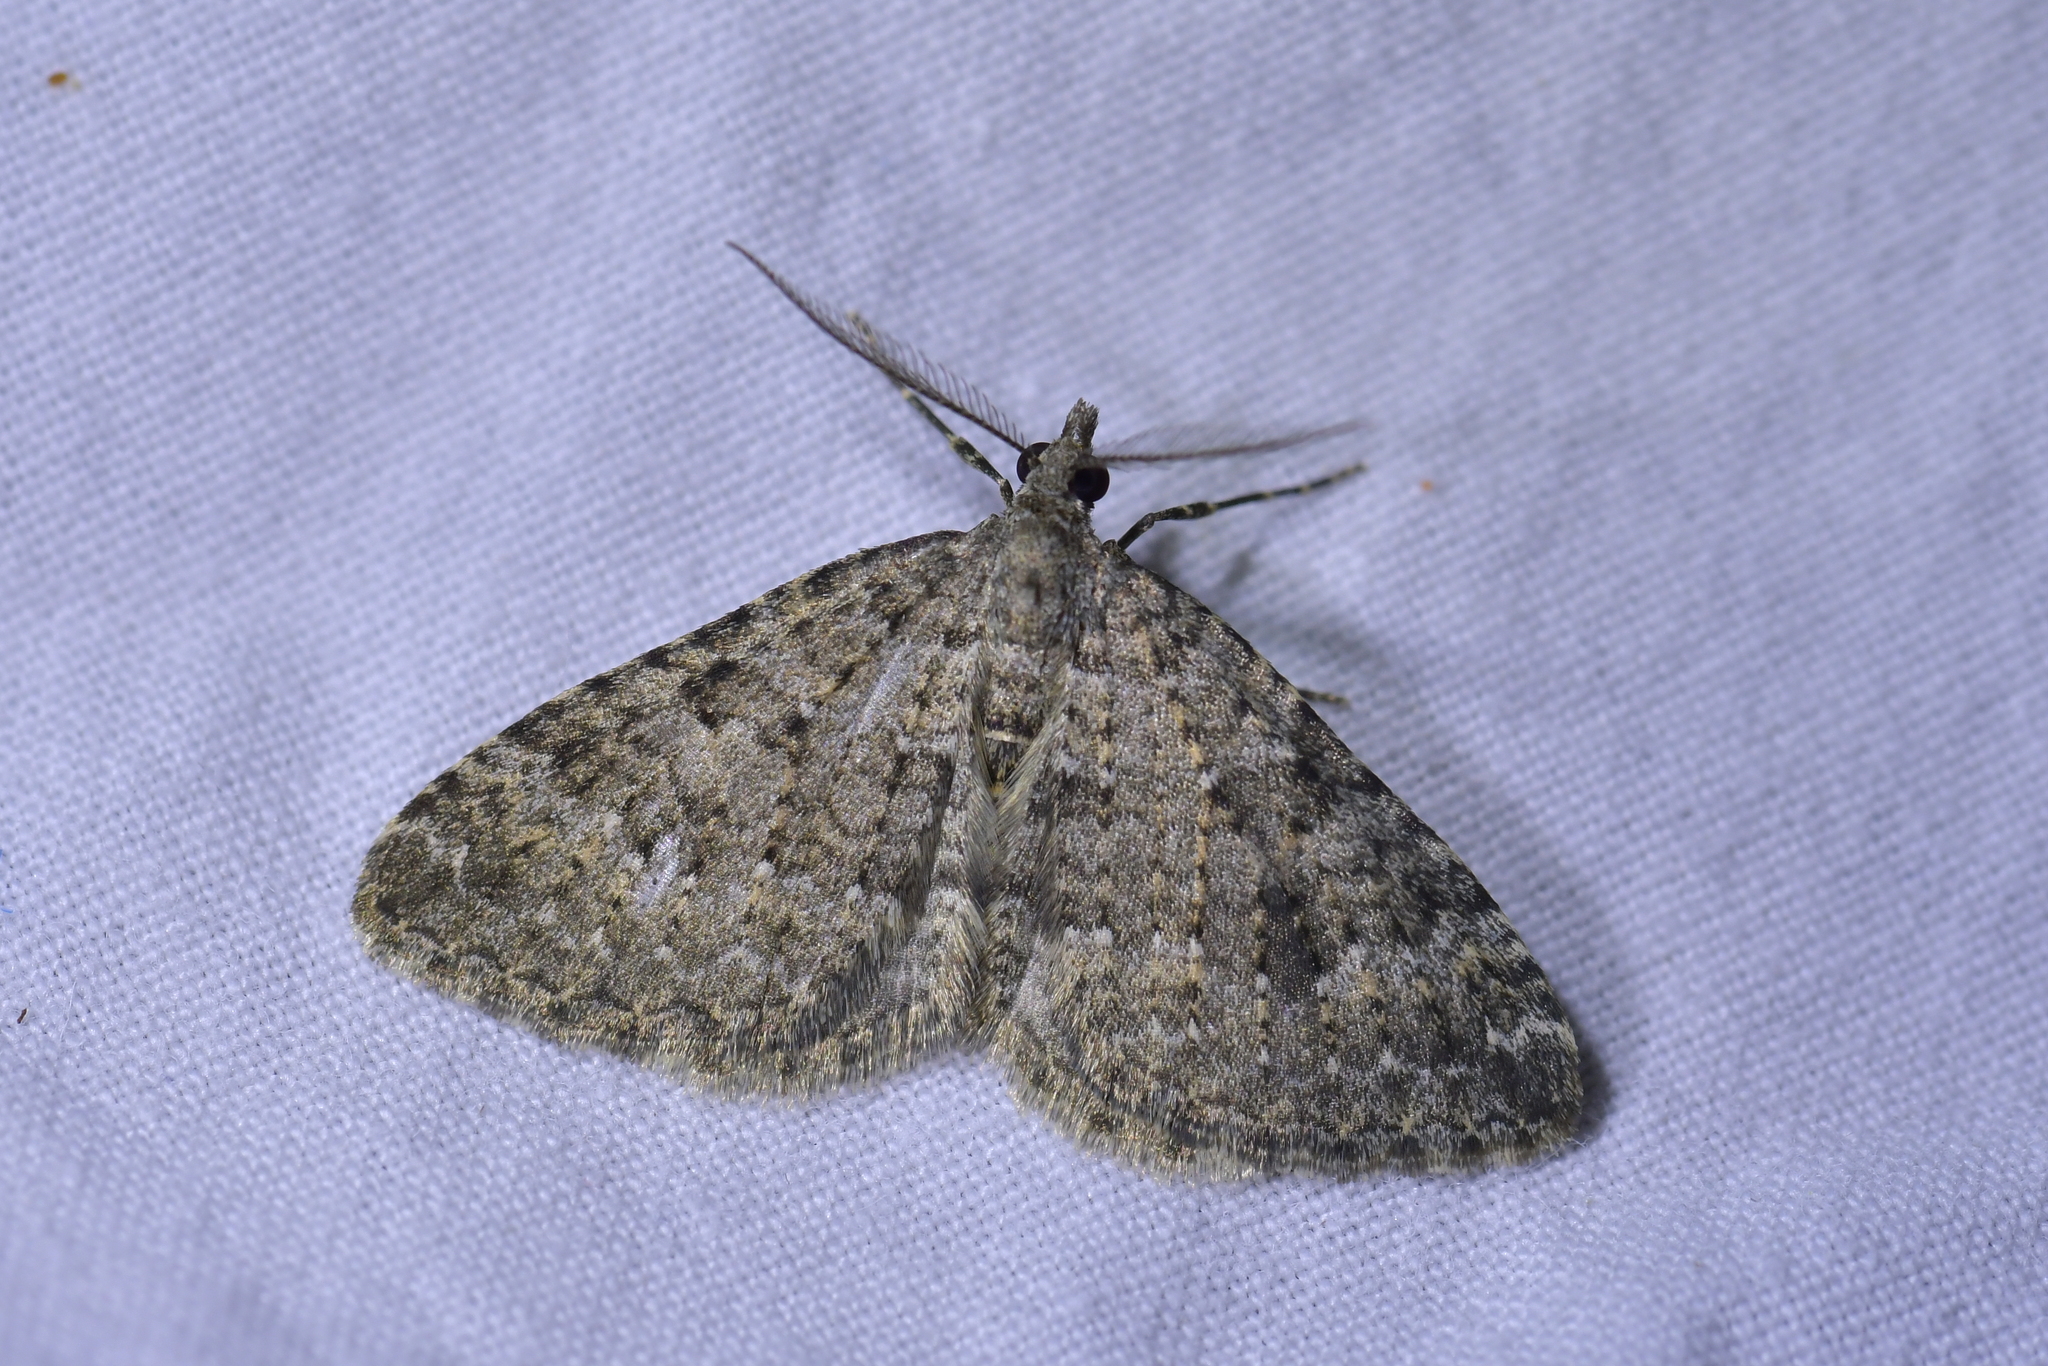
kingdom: Animalia
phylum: Arthropoda
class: Insecta
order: Lepidoptera
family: Geometridae
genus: Helastia
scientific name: Helastia semisignata
